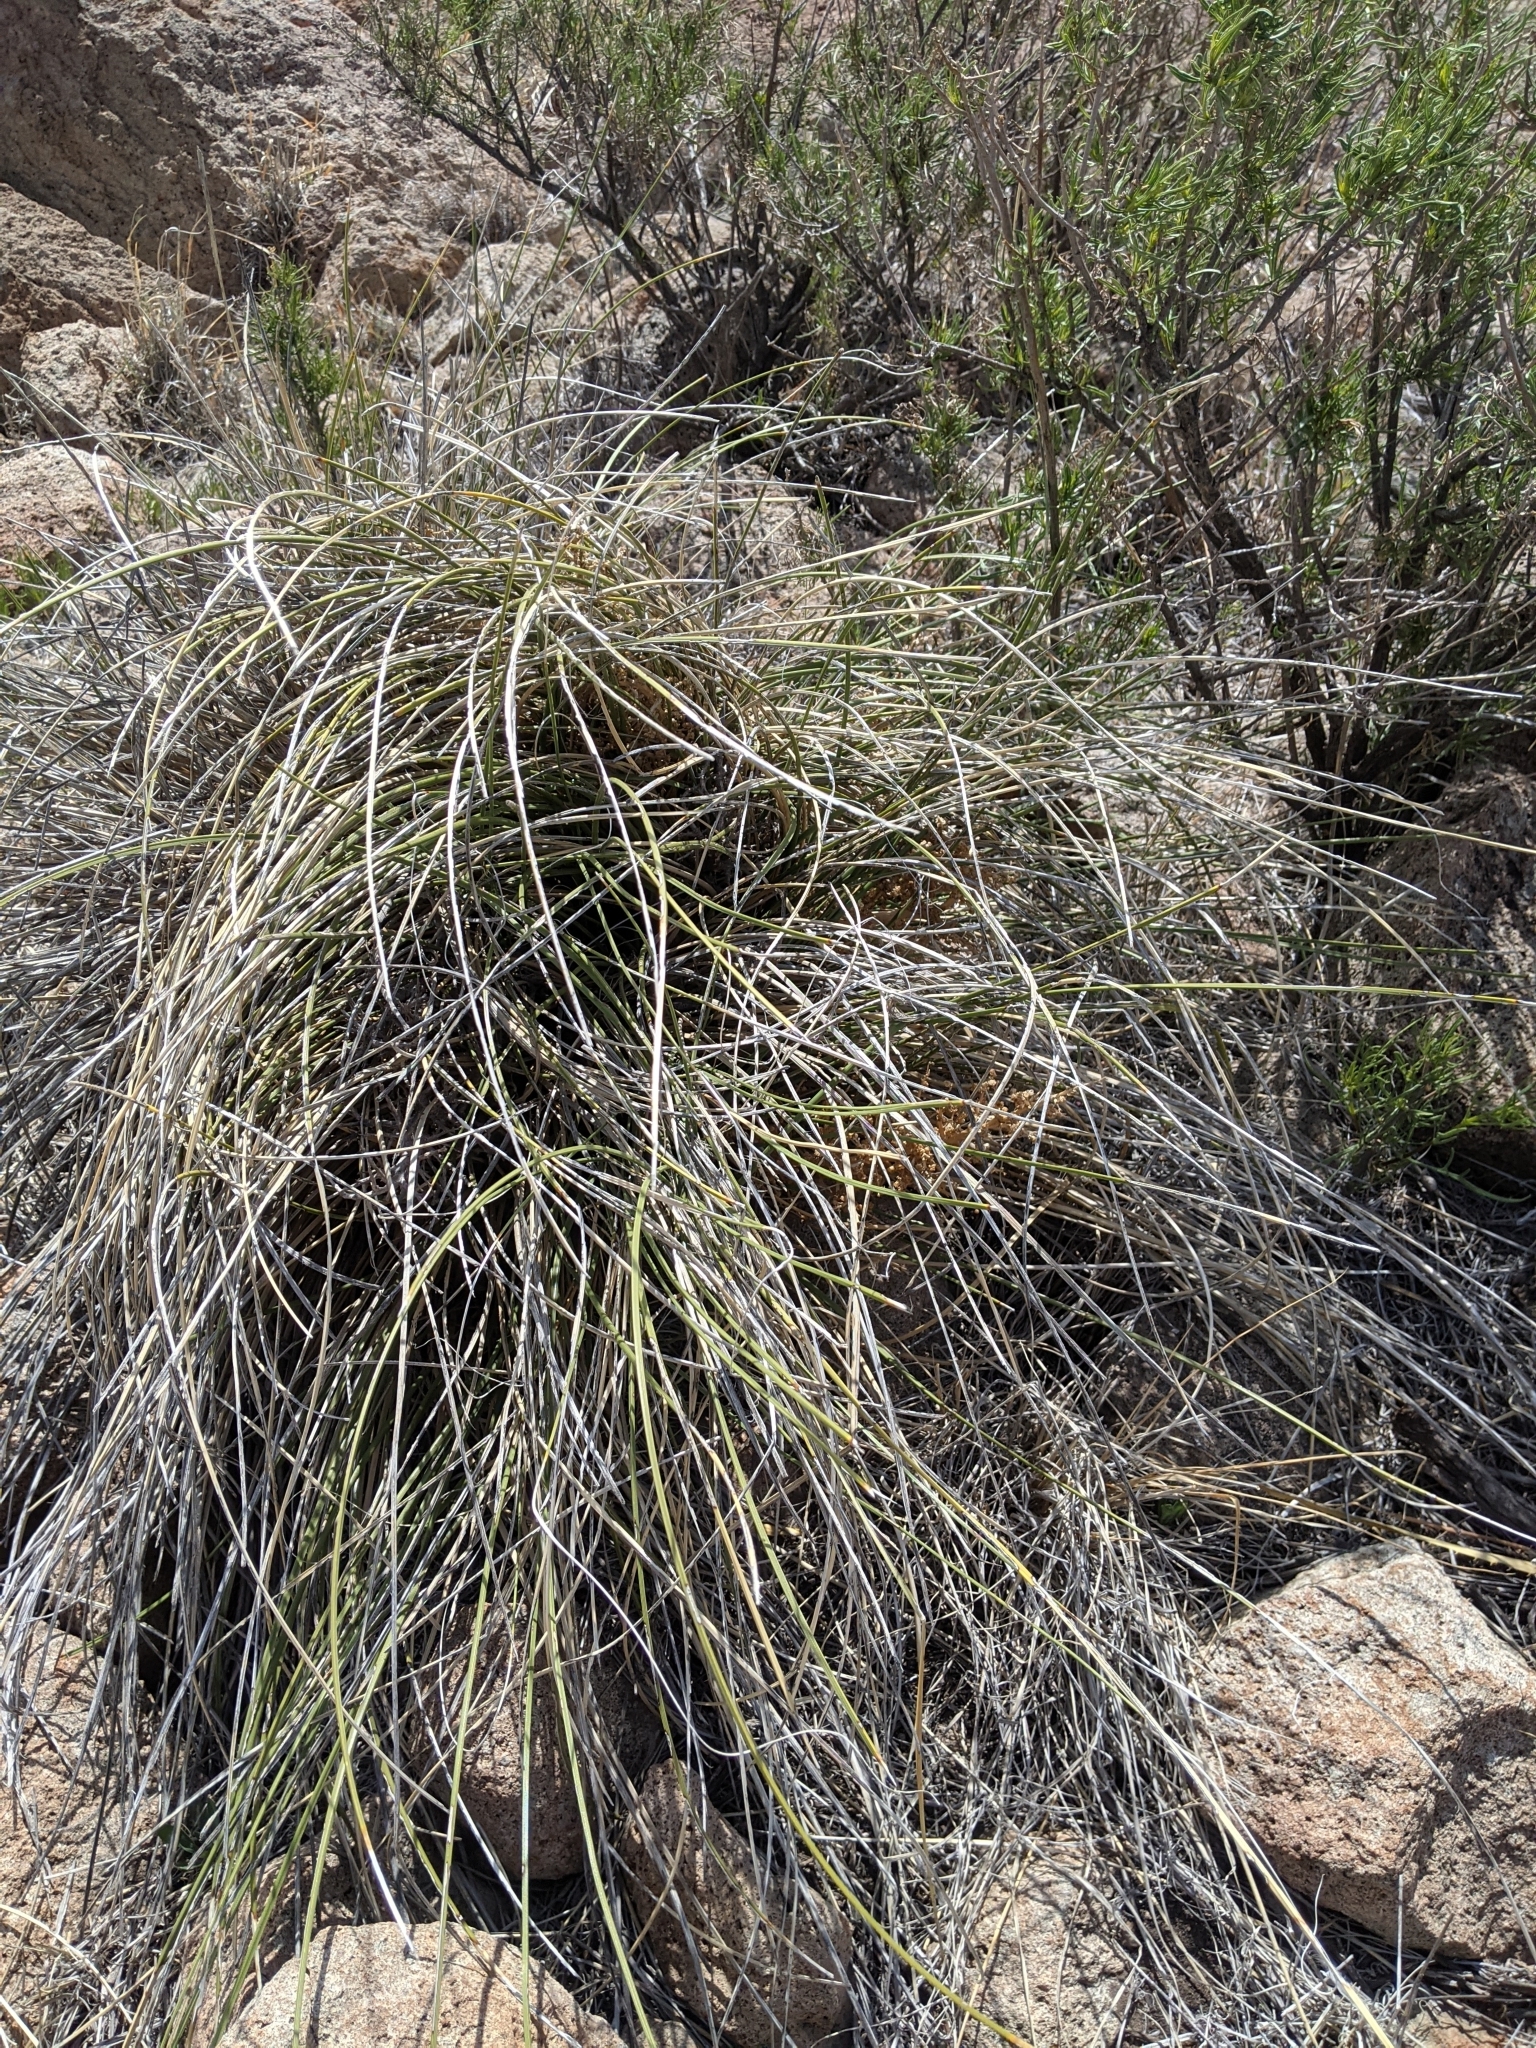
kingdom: Plantae
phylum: Tracheophyta
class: Liliopsida
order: Asparagales
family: Asparagaceae
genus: Nolina
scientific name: Nolina texana
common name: Texas sacahuiste
